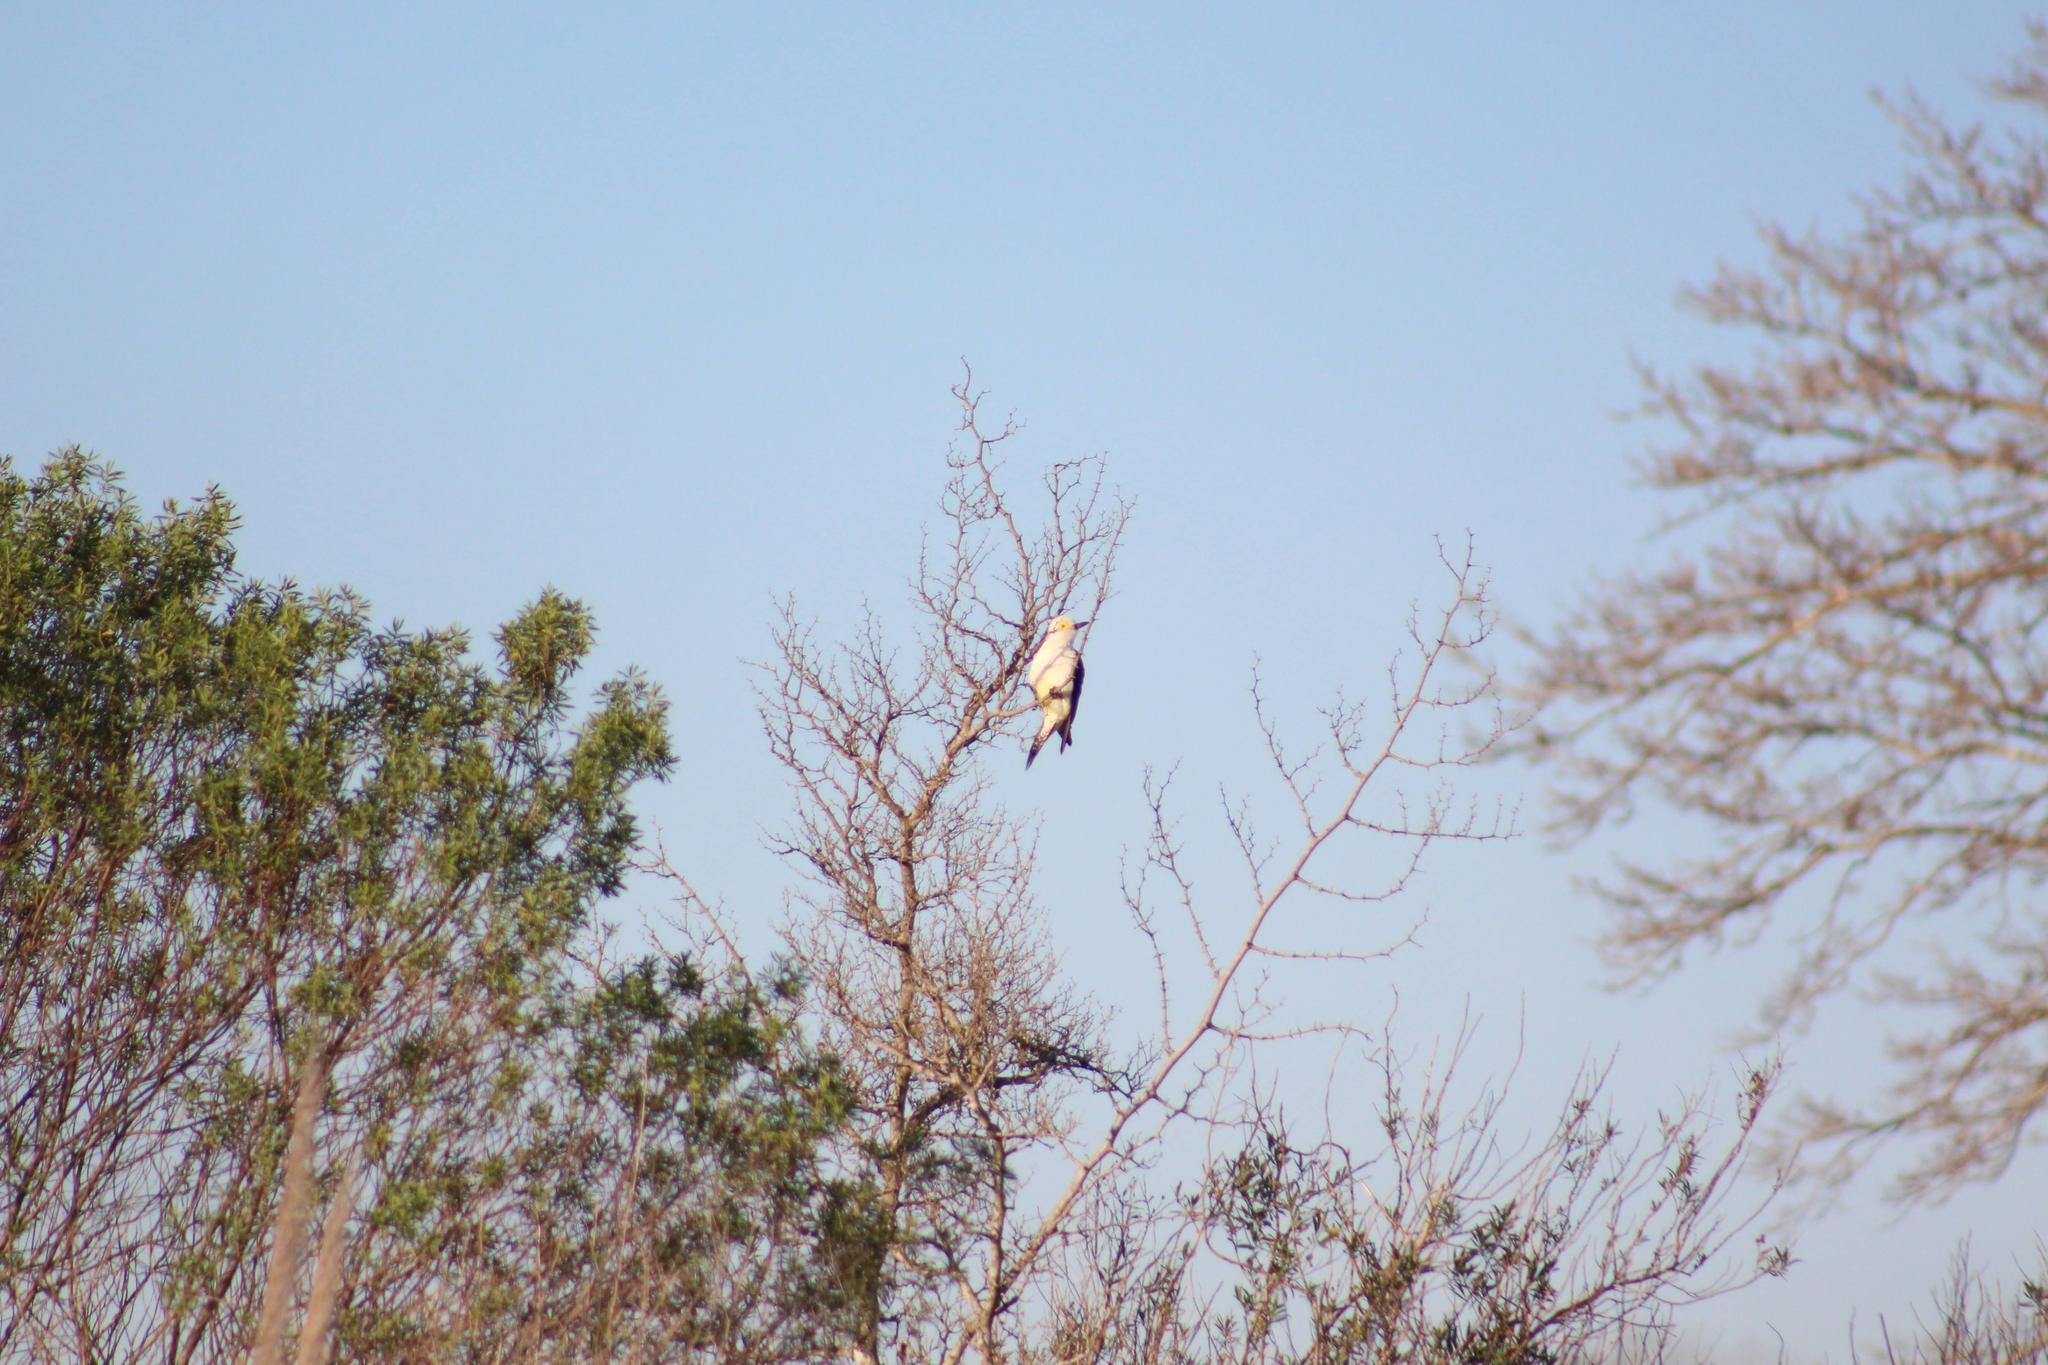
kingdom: Animalia
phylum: Chordata
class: Aves
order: Piciformes
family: Picidae
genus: Melanerpes
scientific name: Melanerpes candidus
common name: White woodpecker
